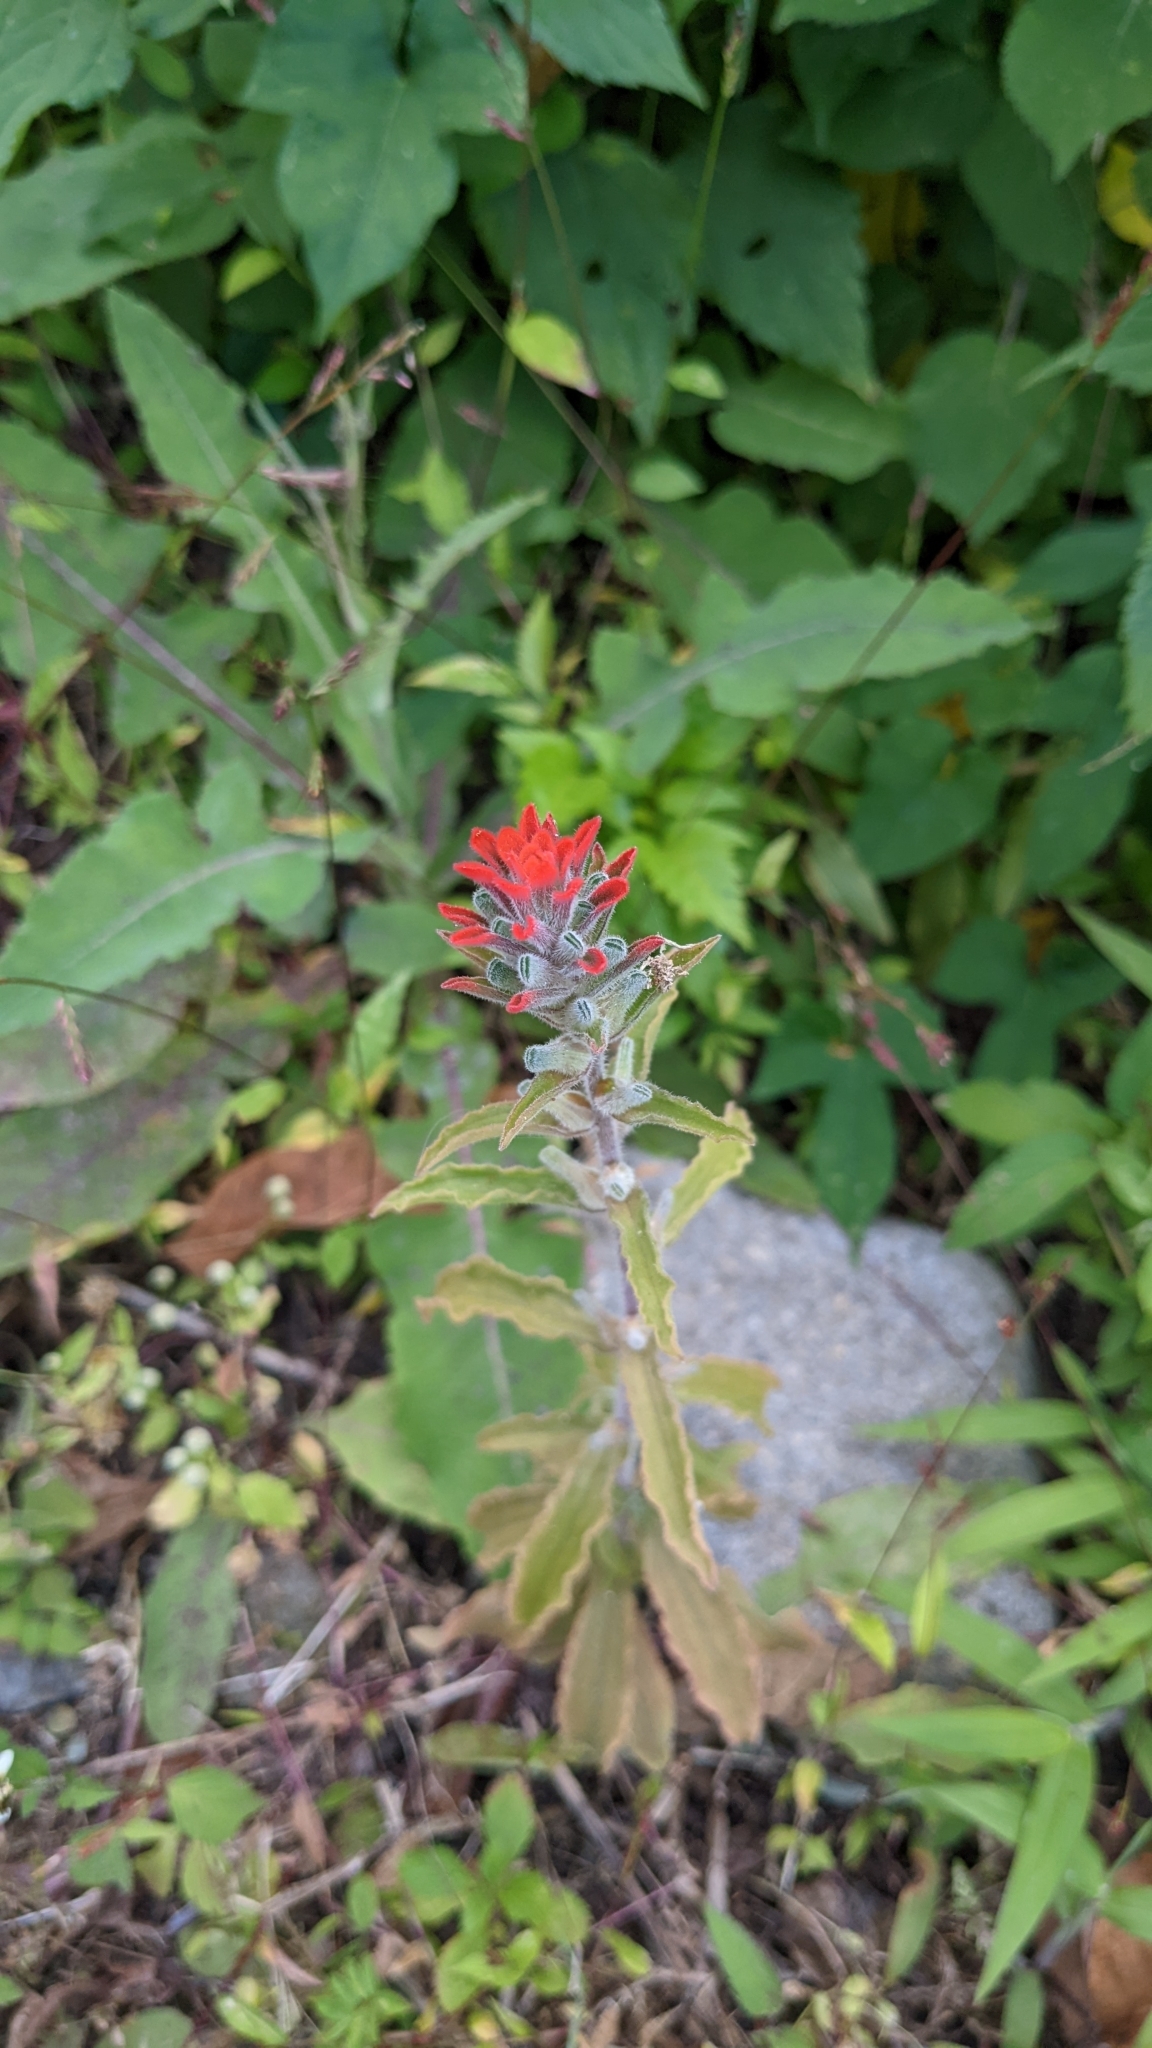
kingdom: Plantae
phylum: Tracheophyta
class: Magnoliopsida
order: Lamiales
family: Orobanchaceae
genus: Castilleja
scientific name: Castilleja arvensis
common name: Indian paintbrush
